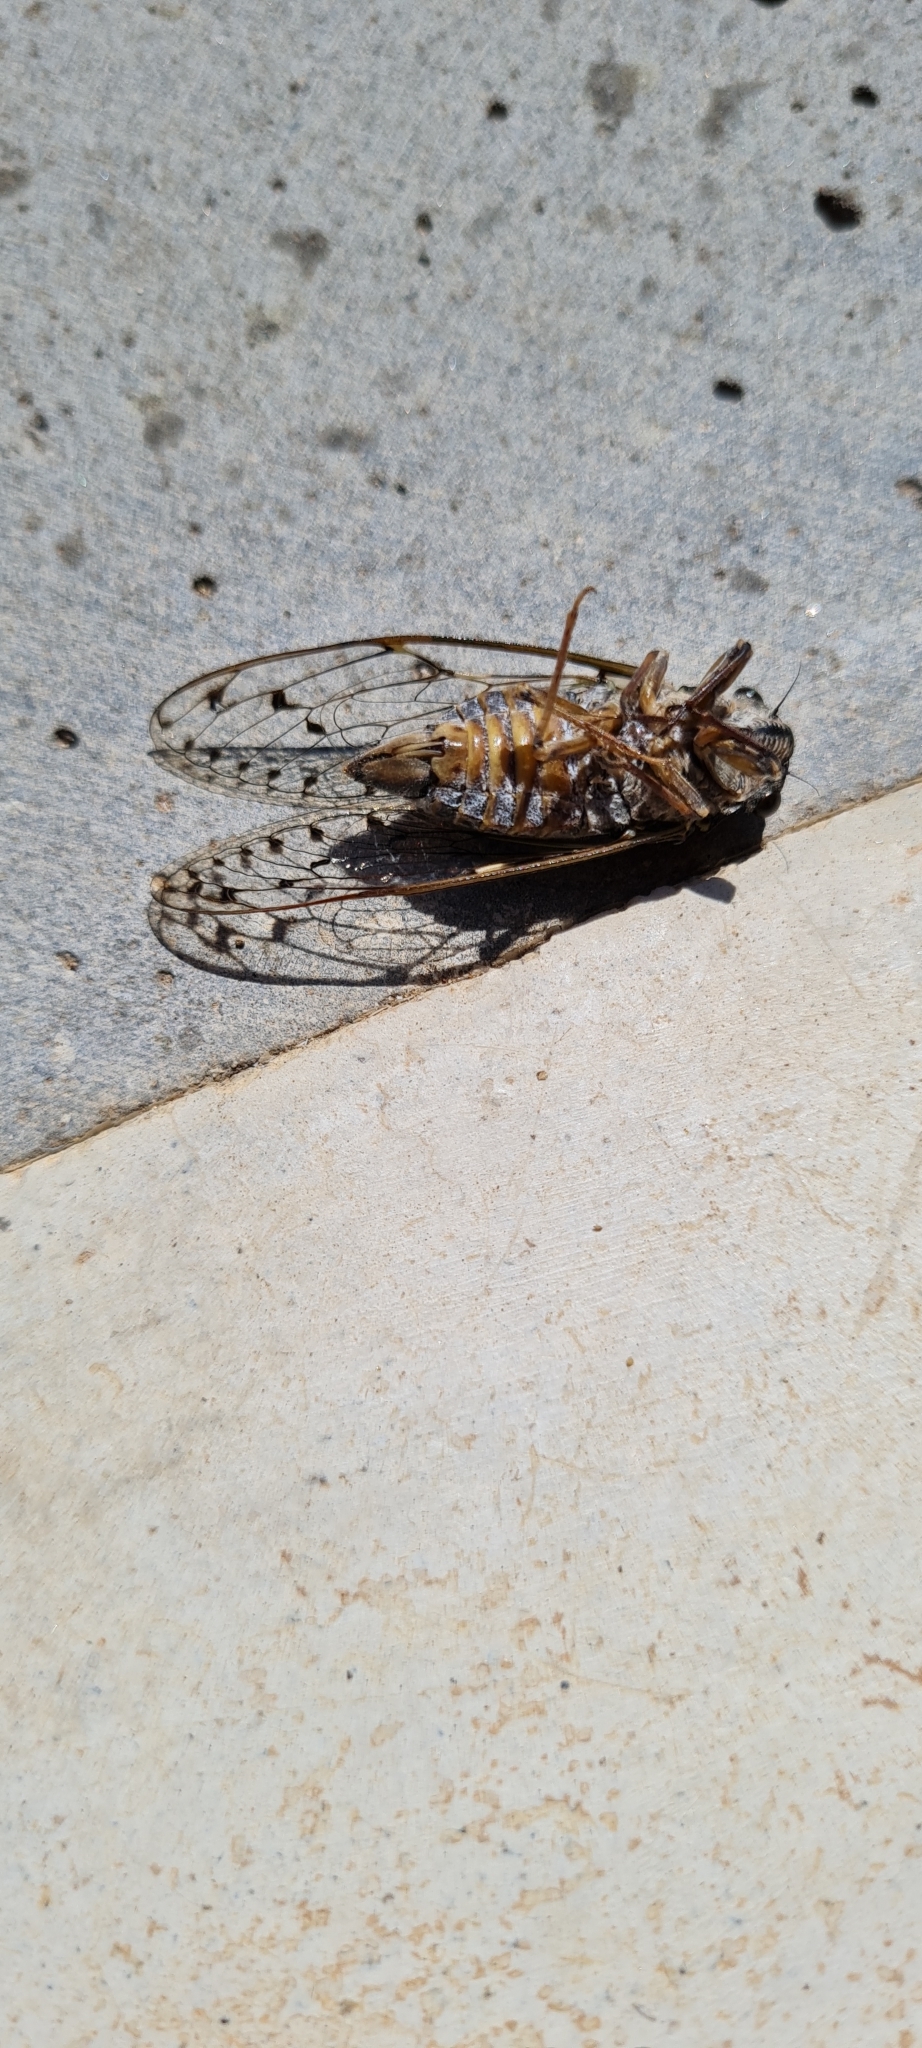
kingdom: Animalia
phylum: Arthropoda
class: Insecta
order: Hemiptera
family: Cicadidae
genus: Cicada
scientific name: Cicada orni
